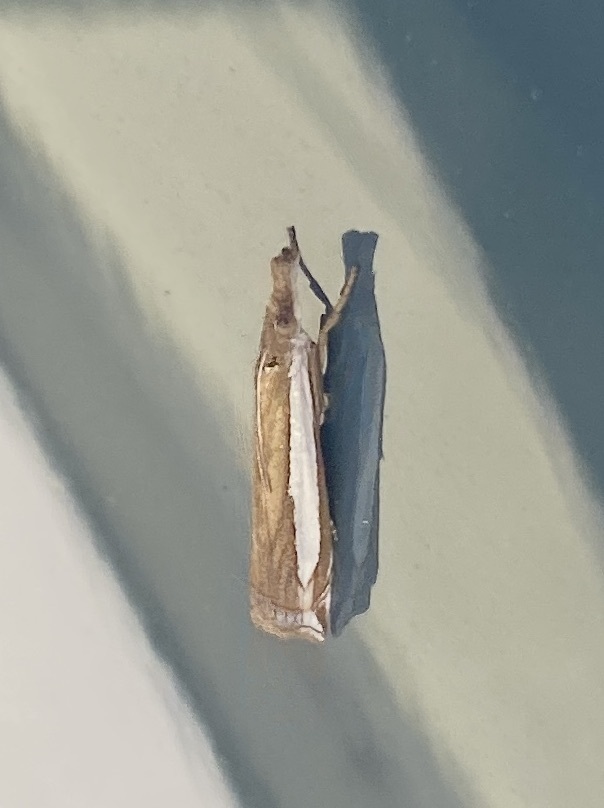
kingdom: Animalia
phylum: Arthropoda
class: Insecta
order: Lepidoptera
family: Crambidae
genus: Crambus
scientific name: Crambus sperryellus
